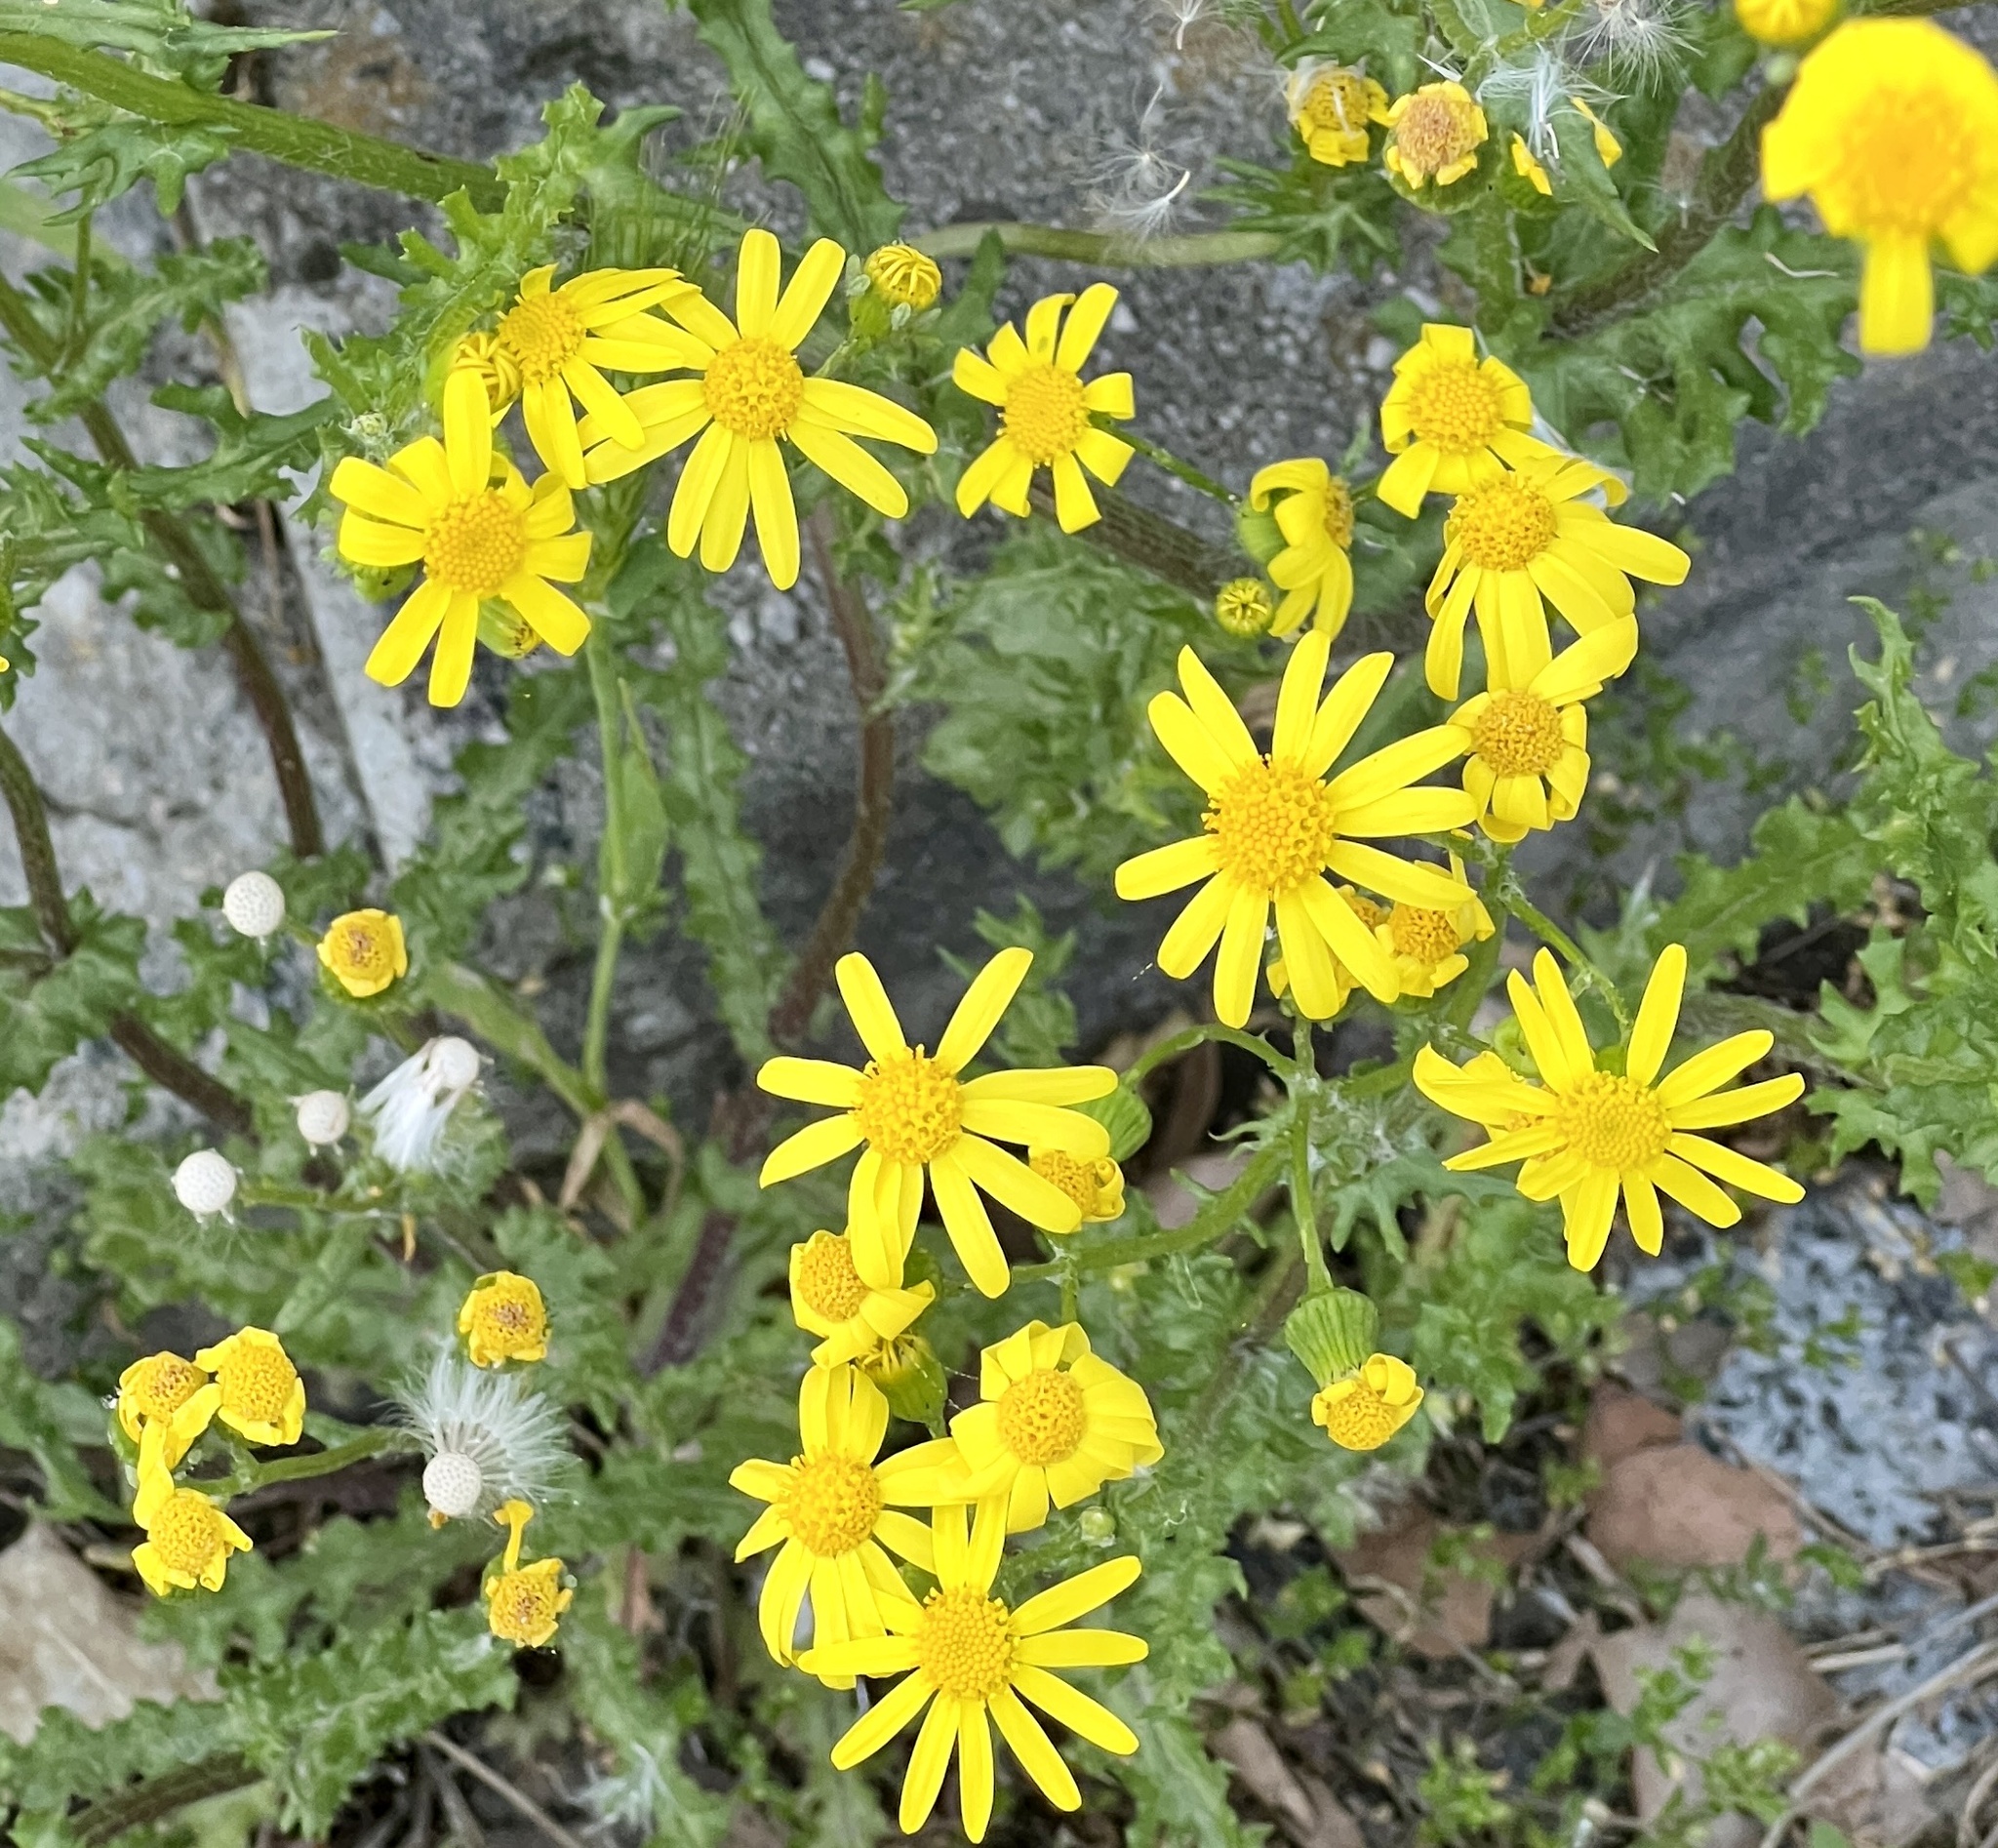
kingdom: Plantae
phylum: Tracheophyta
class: Magnoliopsida
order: Asterales
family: Asteraceae
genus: Senecio
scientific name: Senecio vernalis
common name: Eastern groundsel
